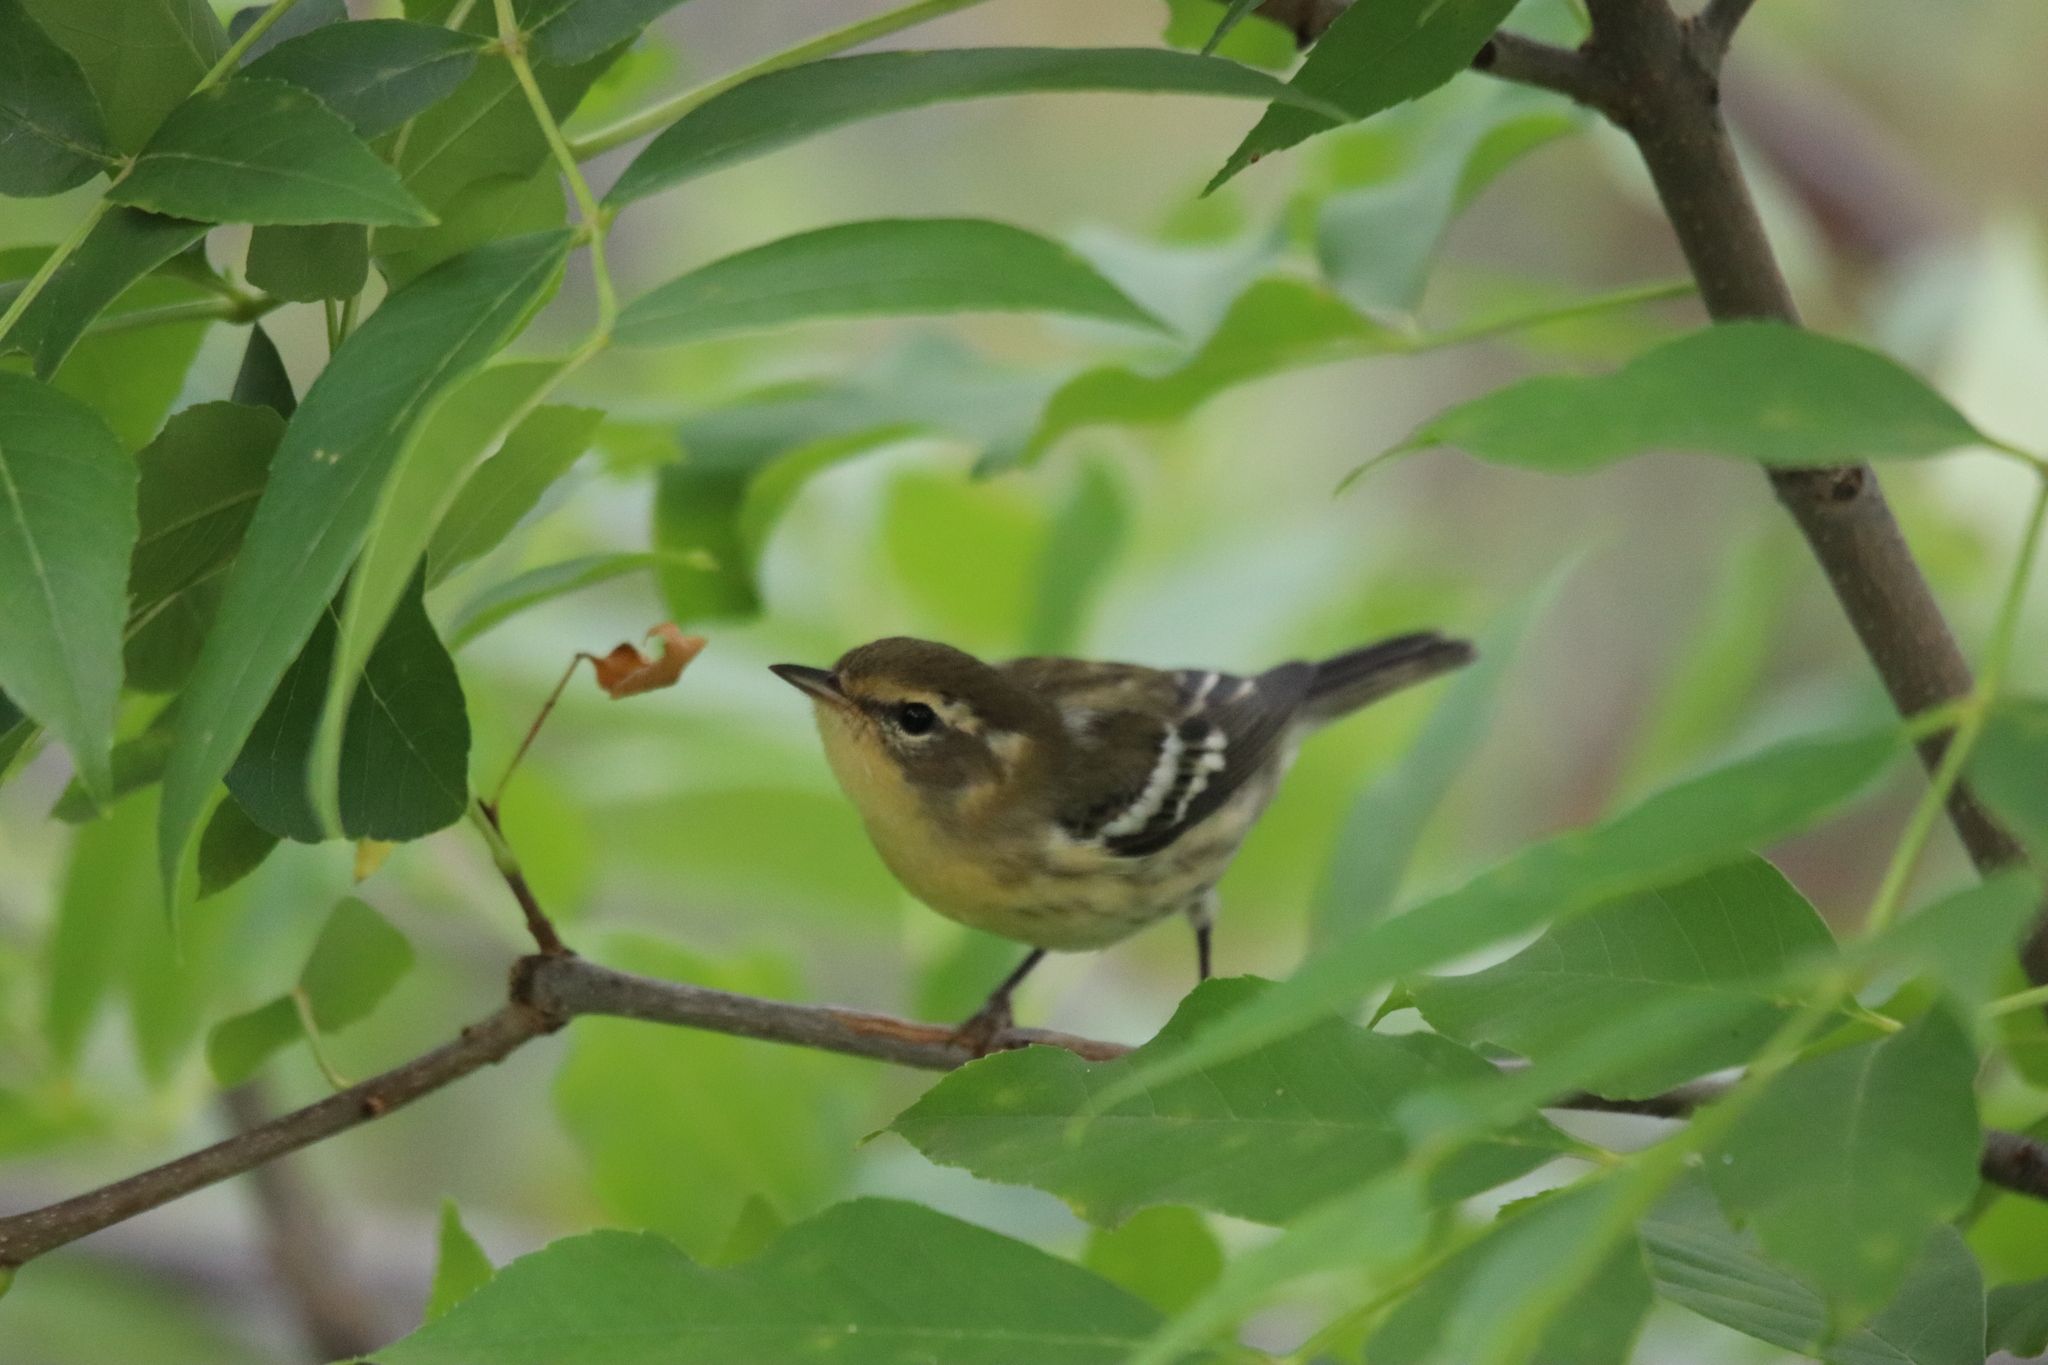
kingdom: Animalia
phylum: Chordata
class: Aves
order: Passeriformes
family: Parulidae
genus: Setophaga
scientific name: Setophaga fusca
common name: Blackburnian warbler
